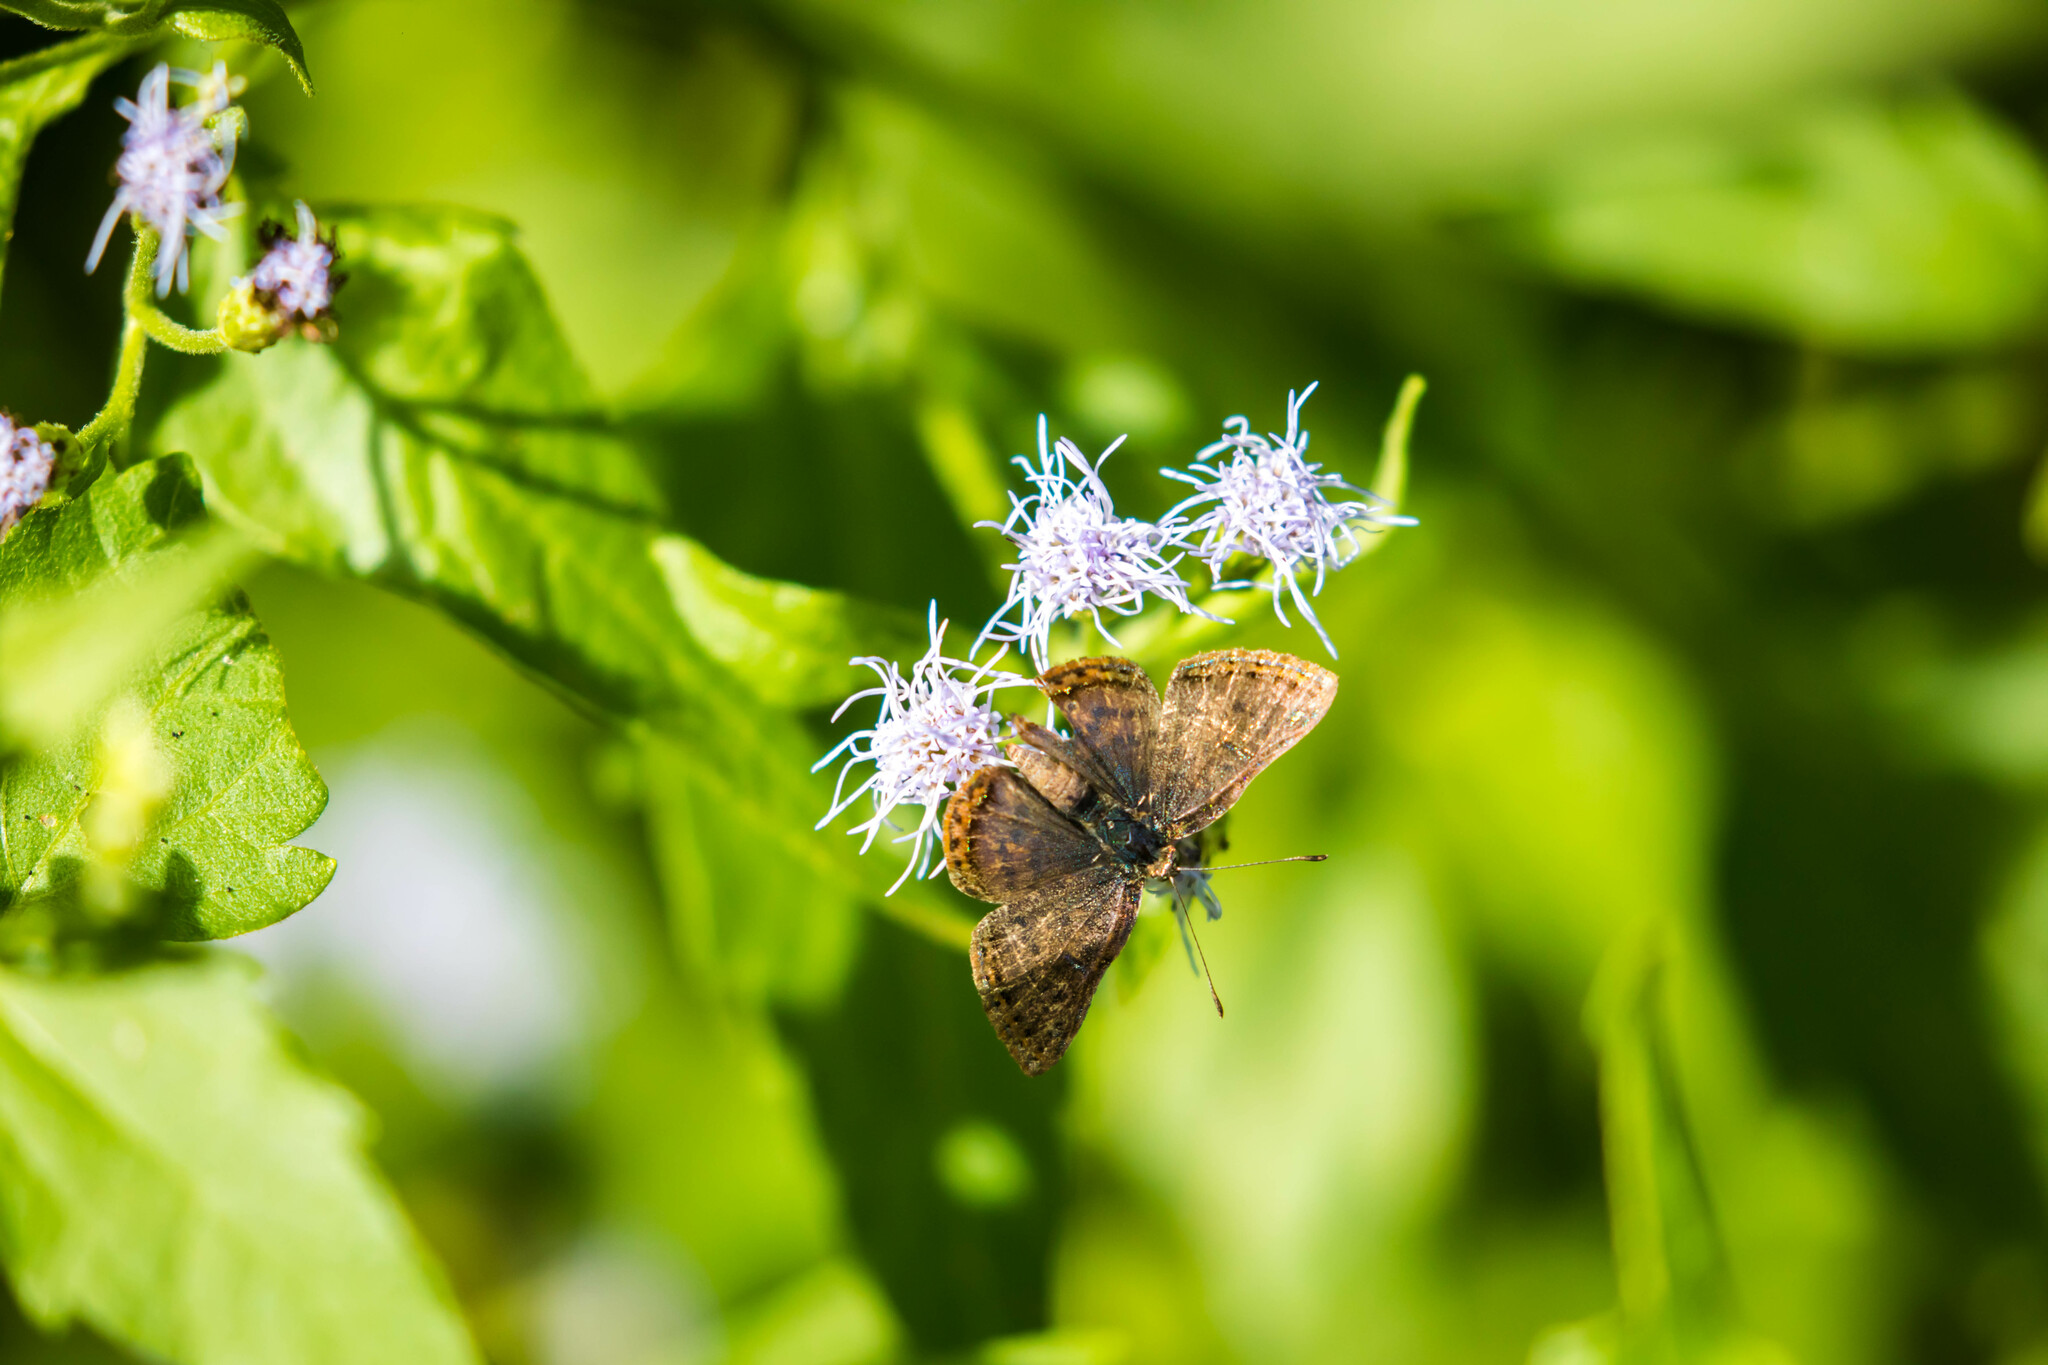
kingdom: Animalia
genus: Caria
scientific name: Caria ino
